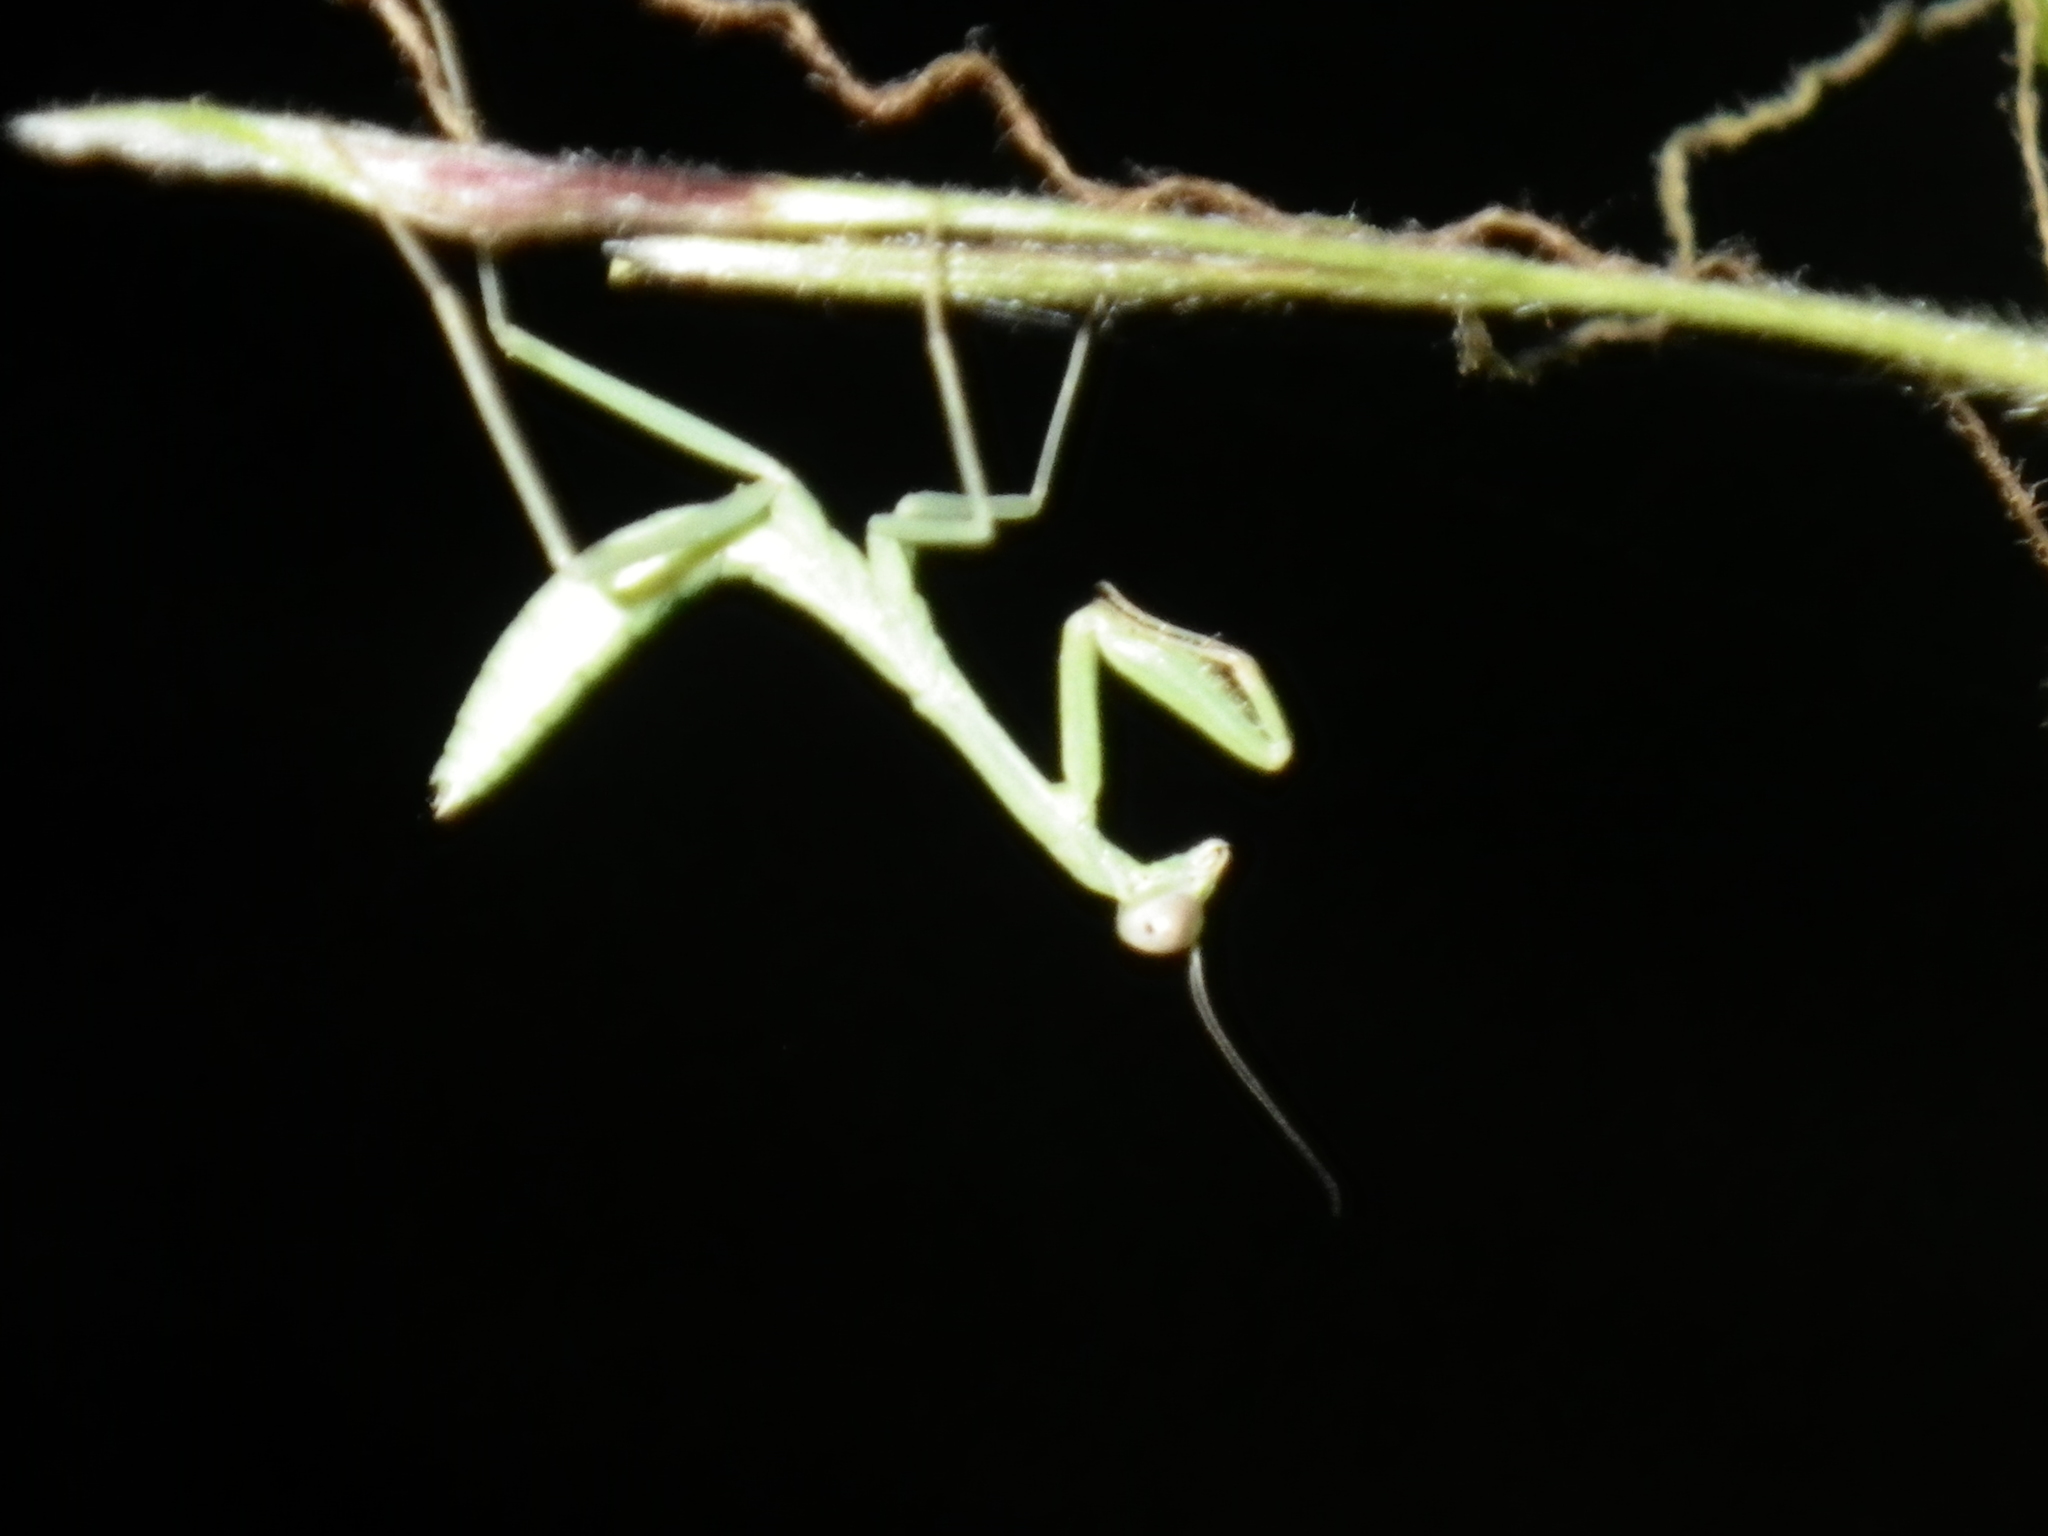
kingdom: Animalia
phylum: Arthropoda
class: Insecta
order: Mantodea
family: Mantidae
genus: Stagmomantis
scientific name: Stagmomantis californica
